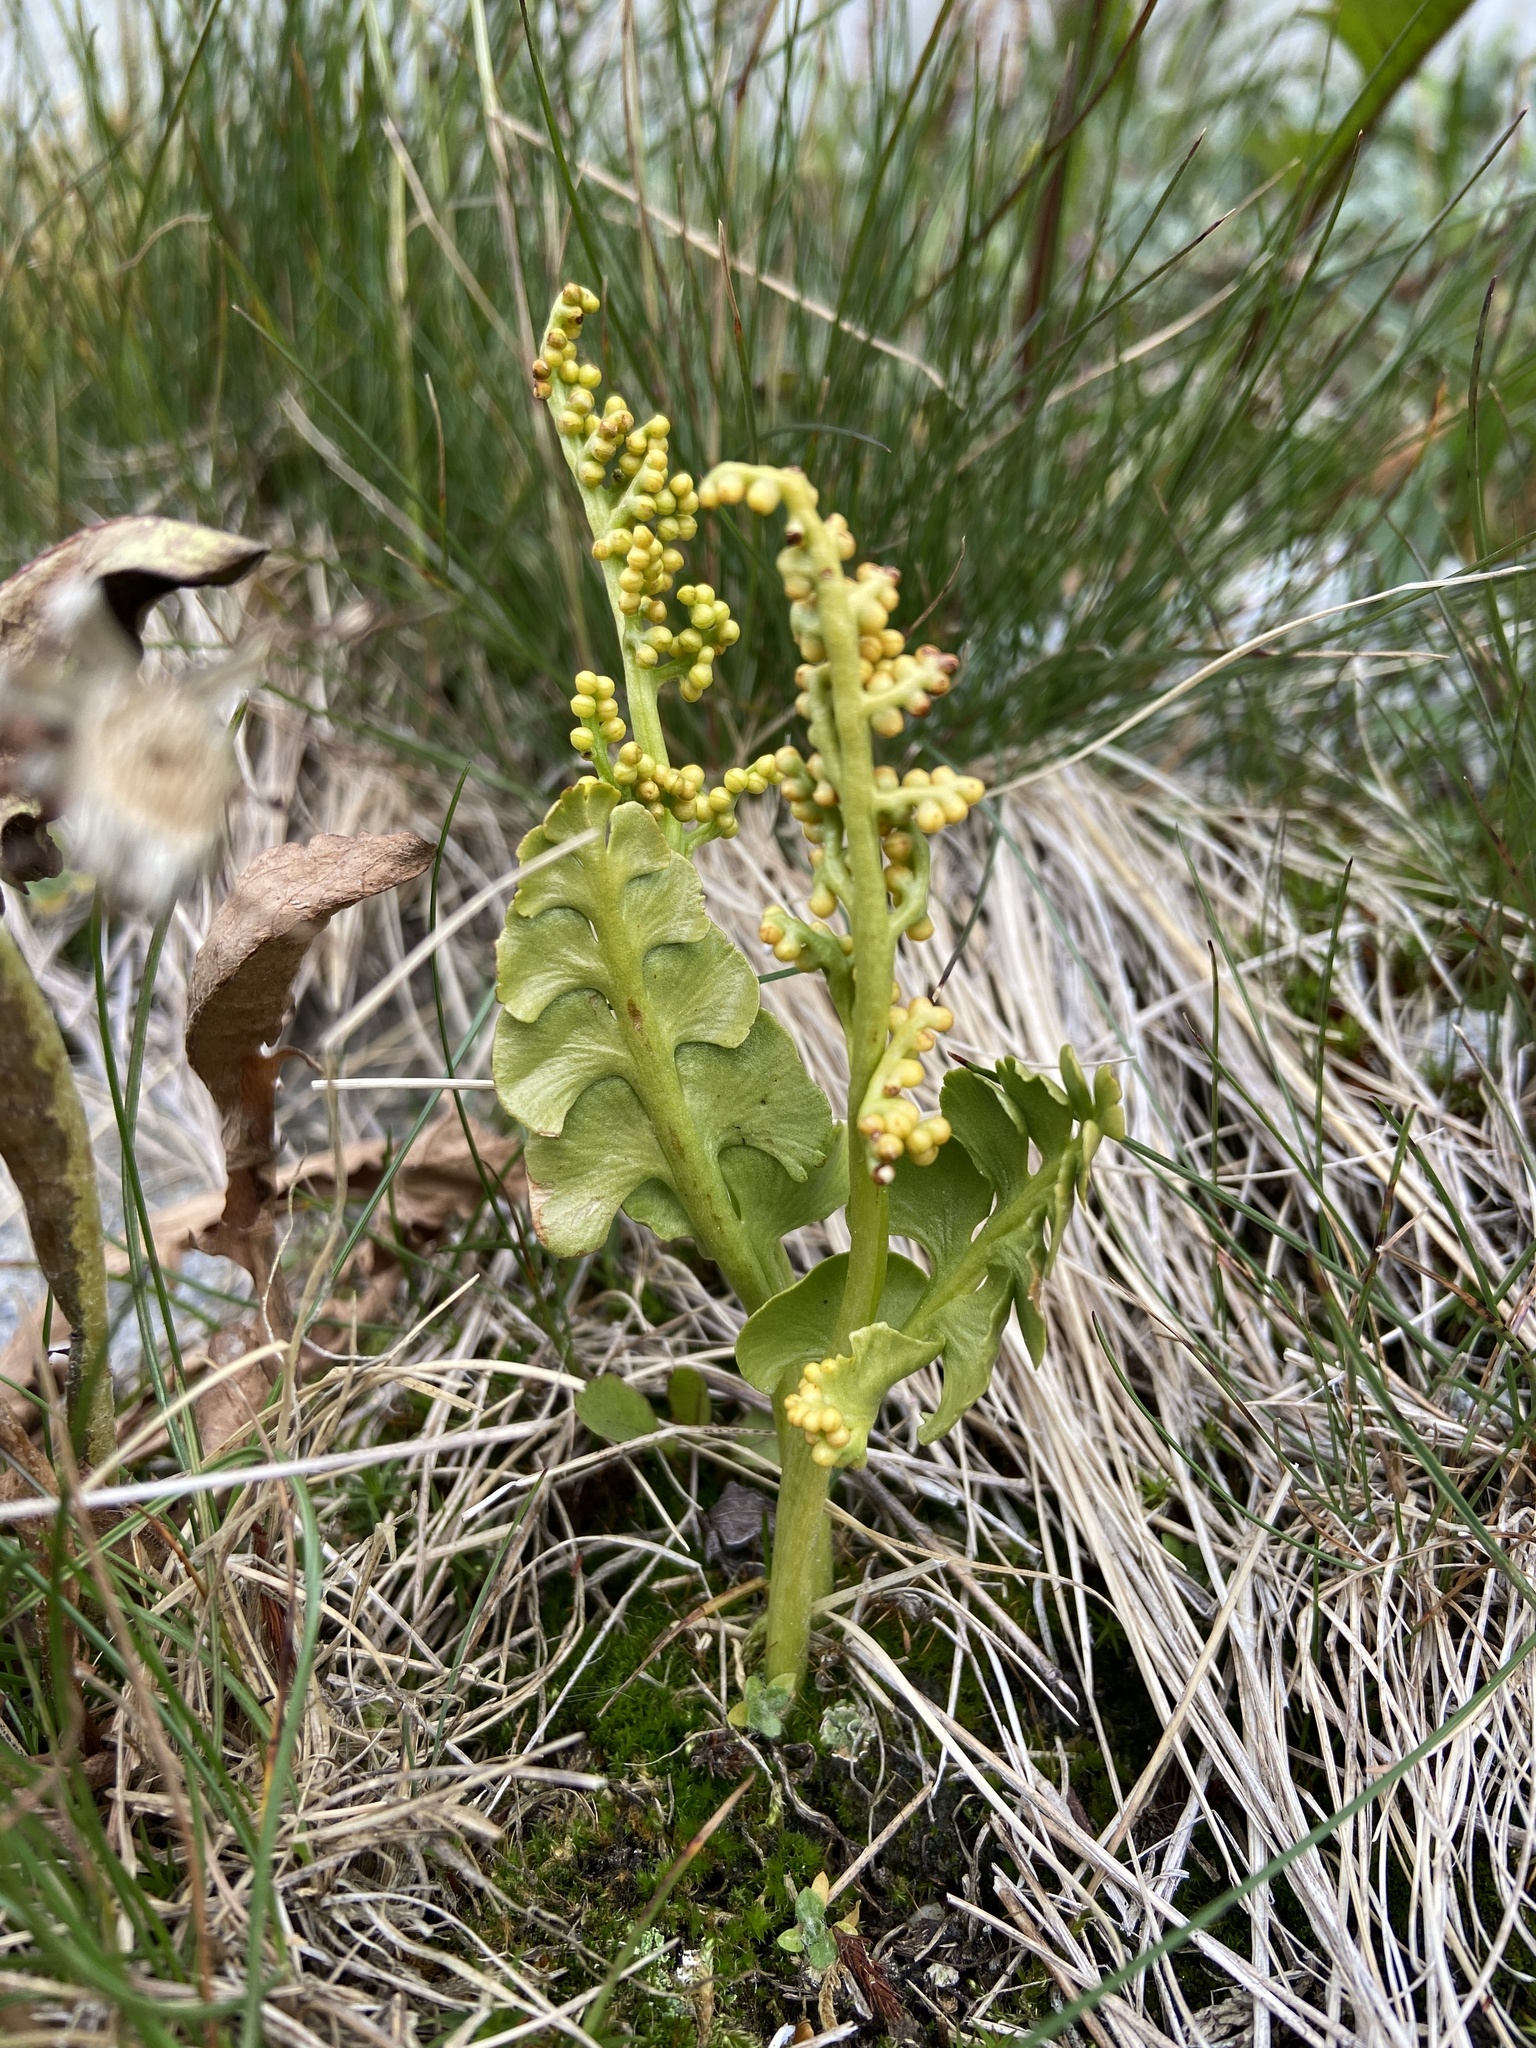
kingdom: Plantae
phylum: Tracheophyta
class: Polypodiopsida
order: Ophioglossales
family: Ophioglossaceae
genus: Botrychium
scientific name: Botrychium lunaria
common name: Moonwort
